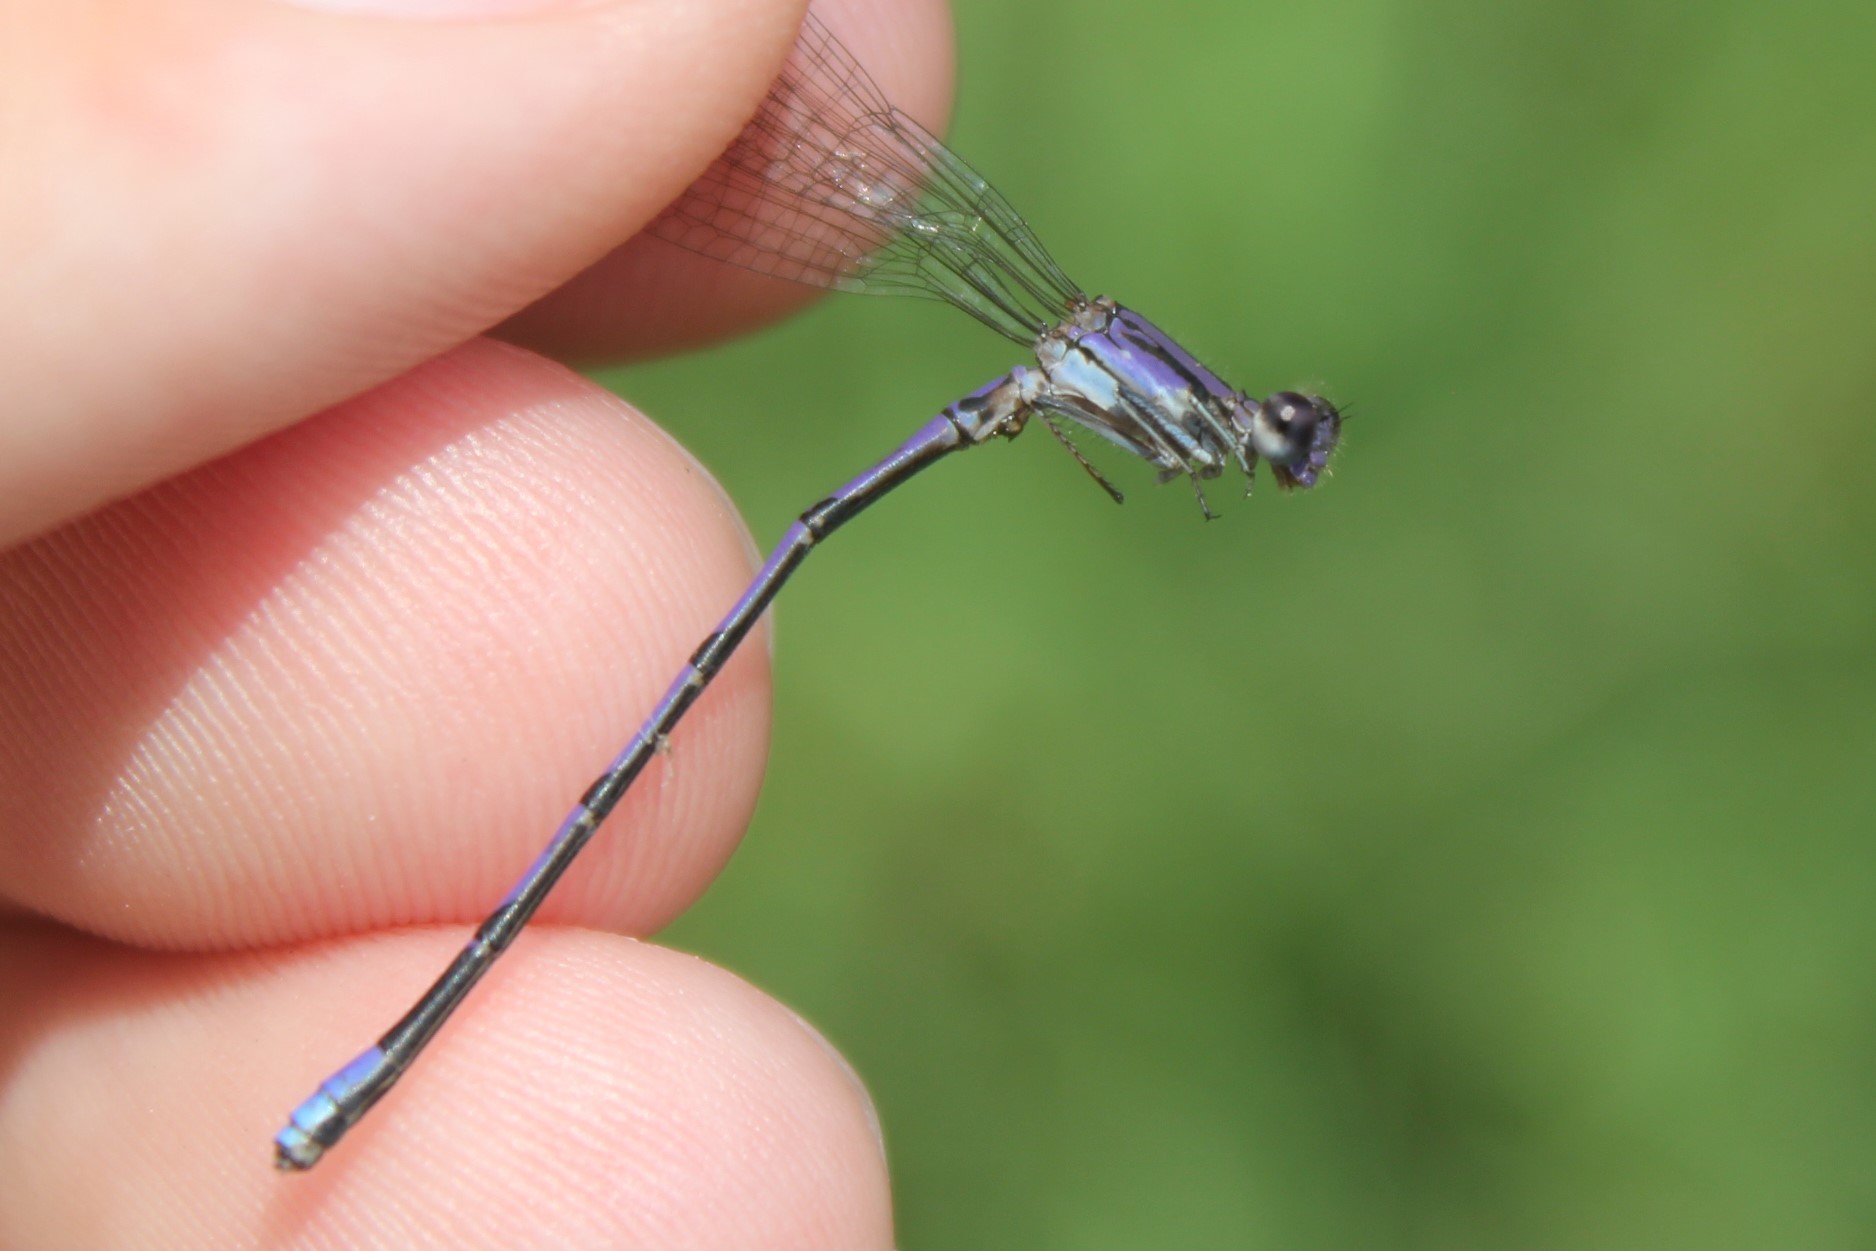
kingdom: Animalia
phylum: Arthropoda
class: Insecta
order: Odonata
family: Coenagrionidae
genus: Argia
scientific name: Argia fumipennis
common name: Variable dancer
